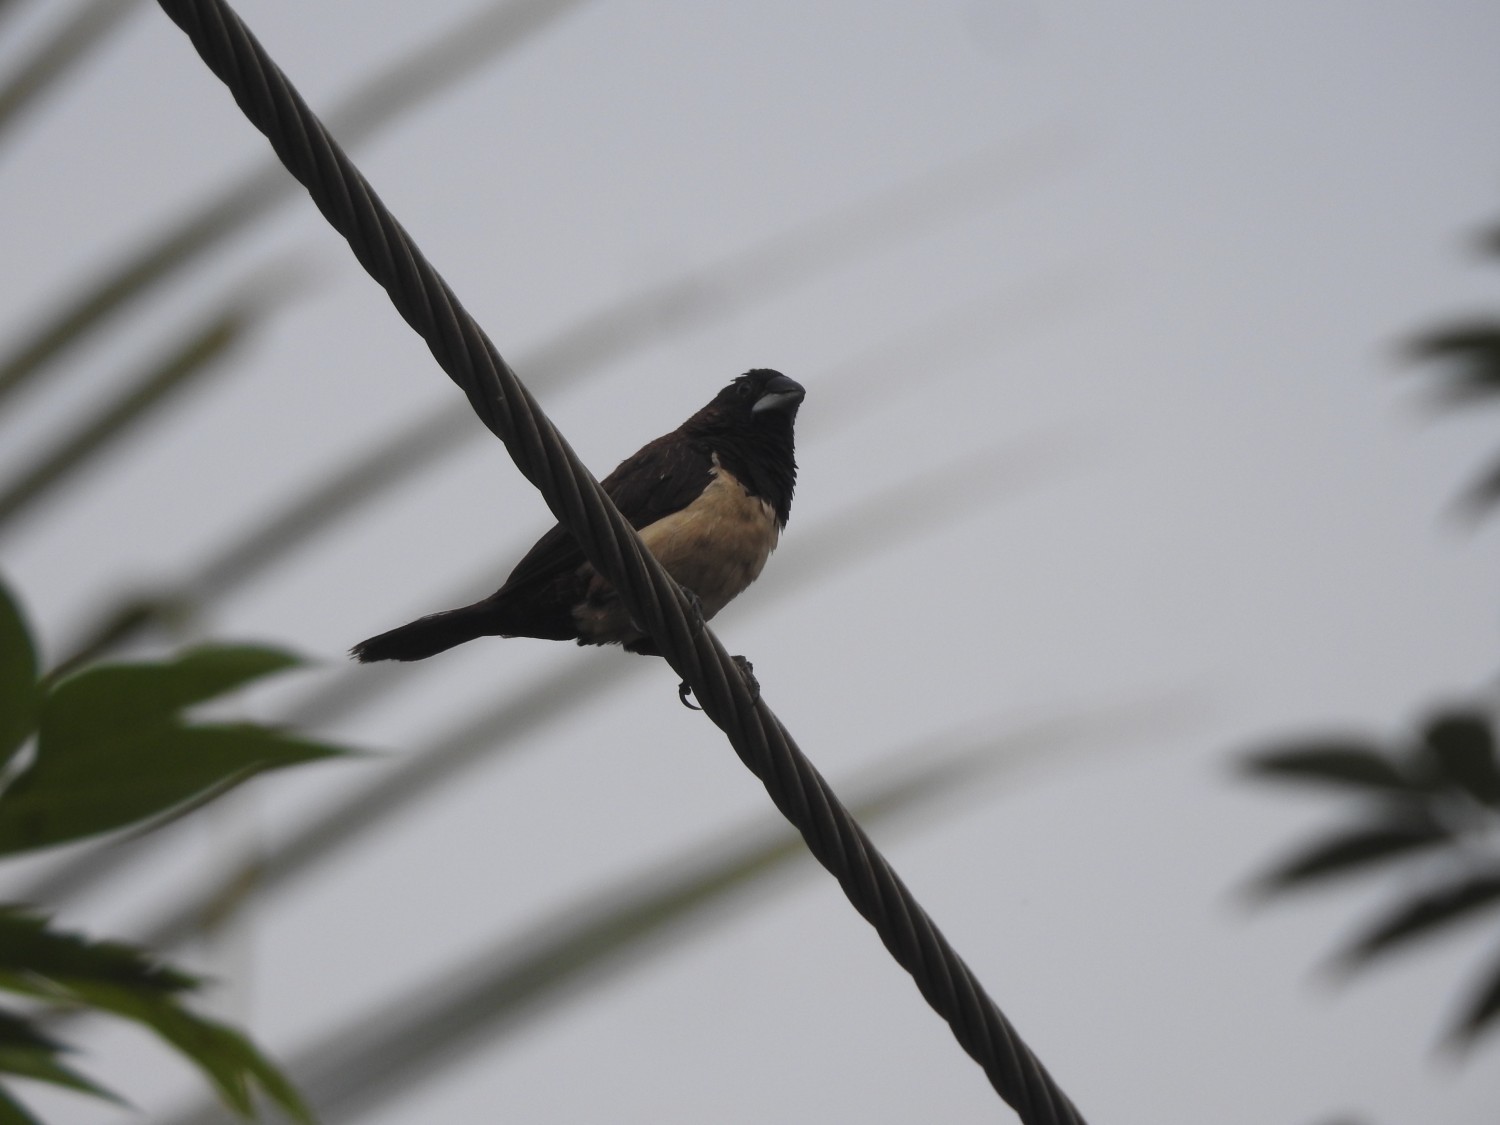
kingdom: Animalia
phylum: Chordata
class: Aves
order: Passeriformes
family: Estrildidae
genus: Lonchura
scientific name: Lonchura striata
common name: White-rumped munia
